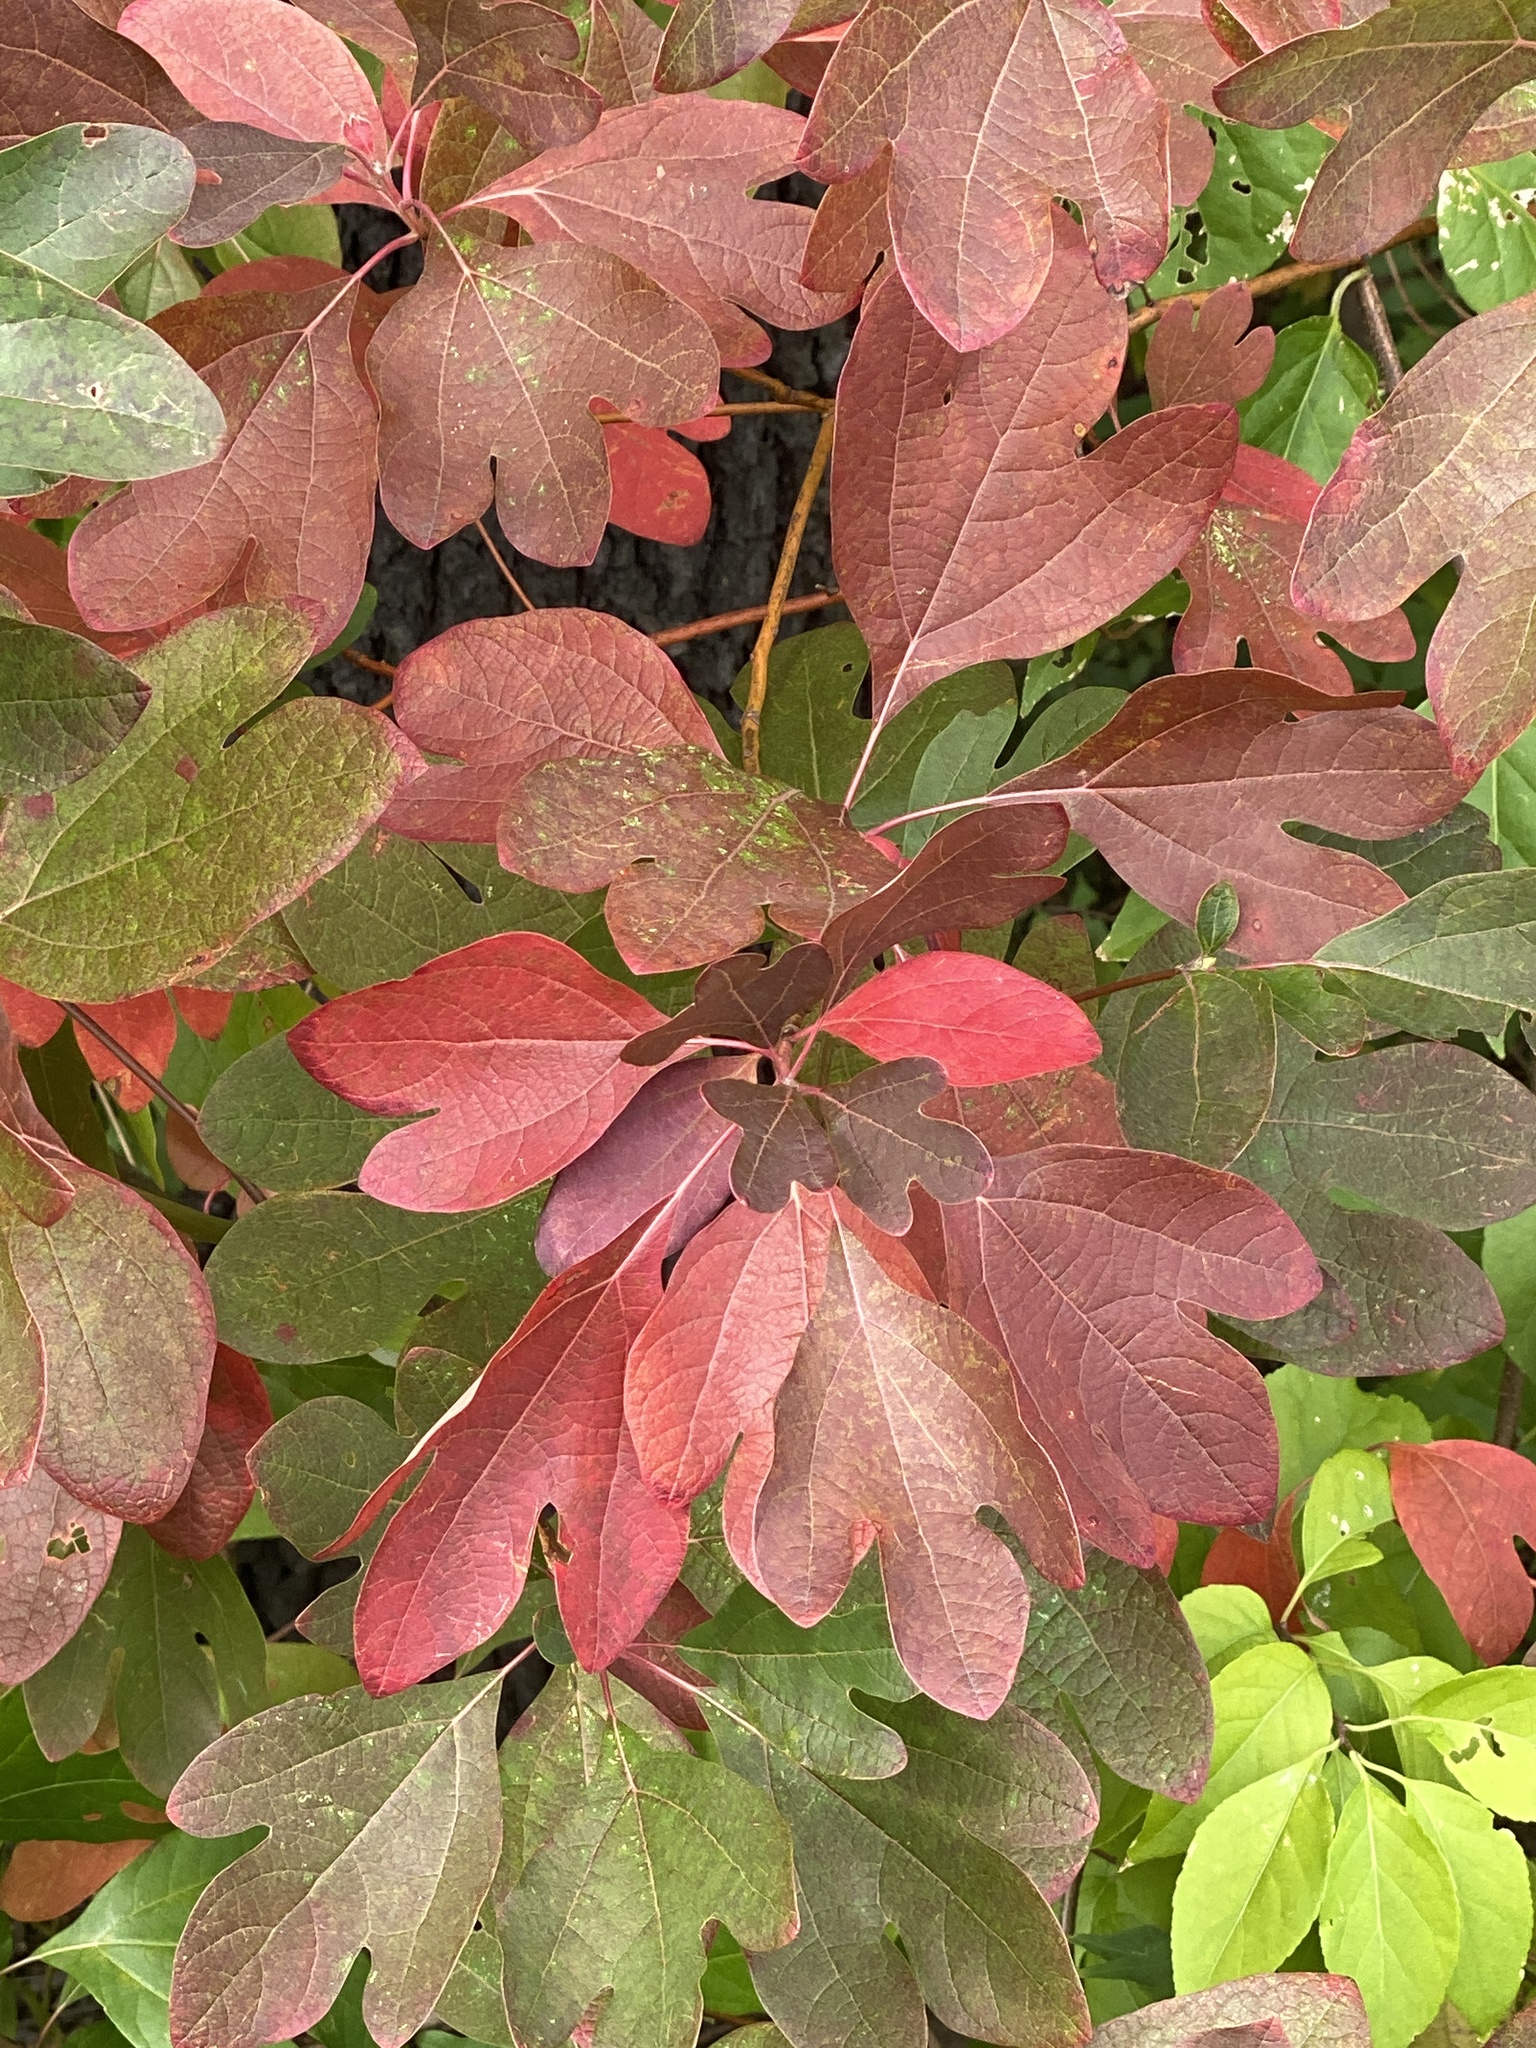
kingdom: Plantae
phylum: Tracheophyta
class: Magnoliopsida
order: Laurales
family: Lauraceae
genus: Sassafras
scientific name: Sassafras albidum
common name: Sassafras
